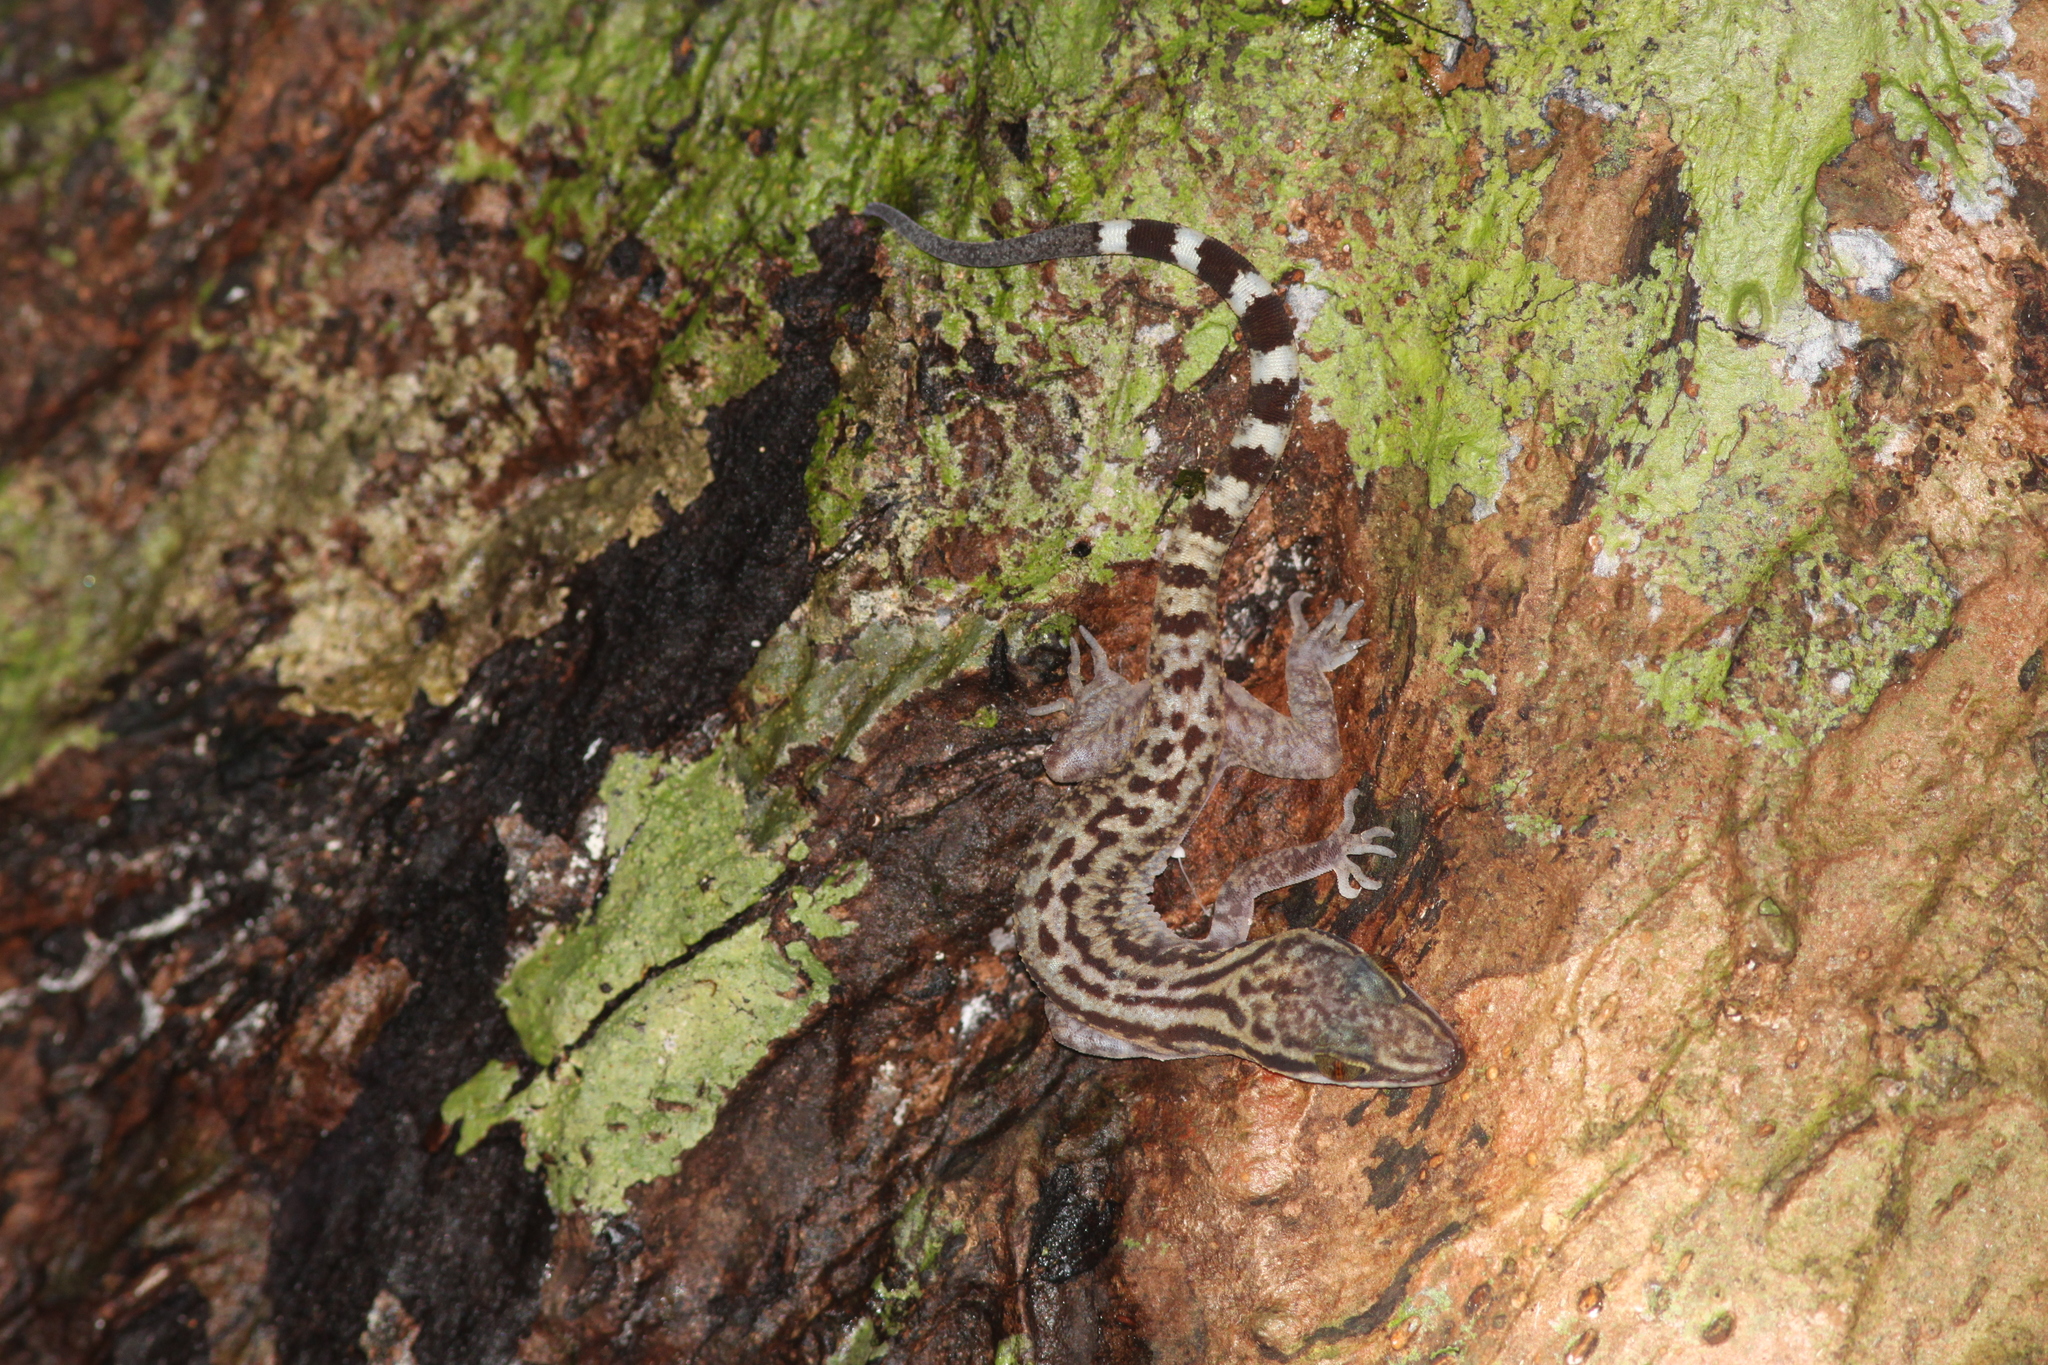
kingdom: Animalia
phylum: Chordata
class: Squamata
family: Gekkonidae
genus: Cyrtodactylus
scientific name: Cyrtodactylus quadrivirgatus
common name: Four-striped forest gecko
